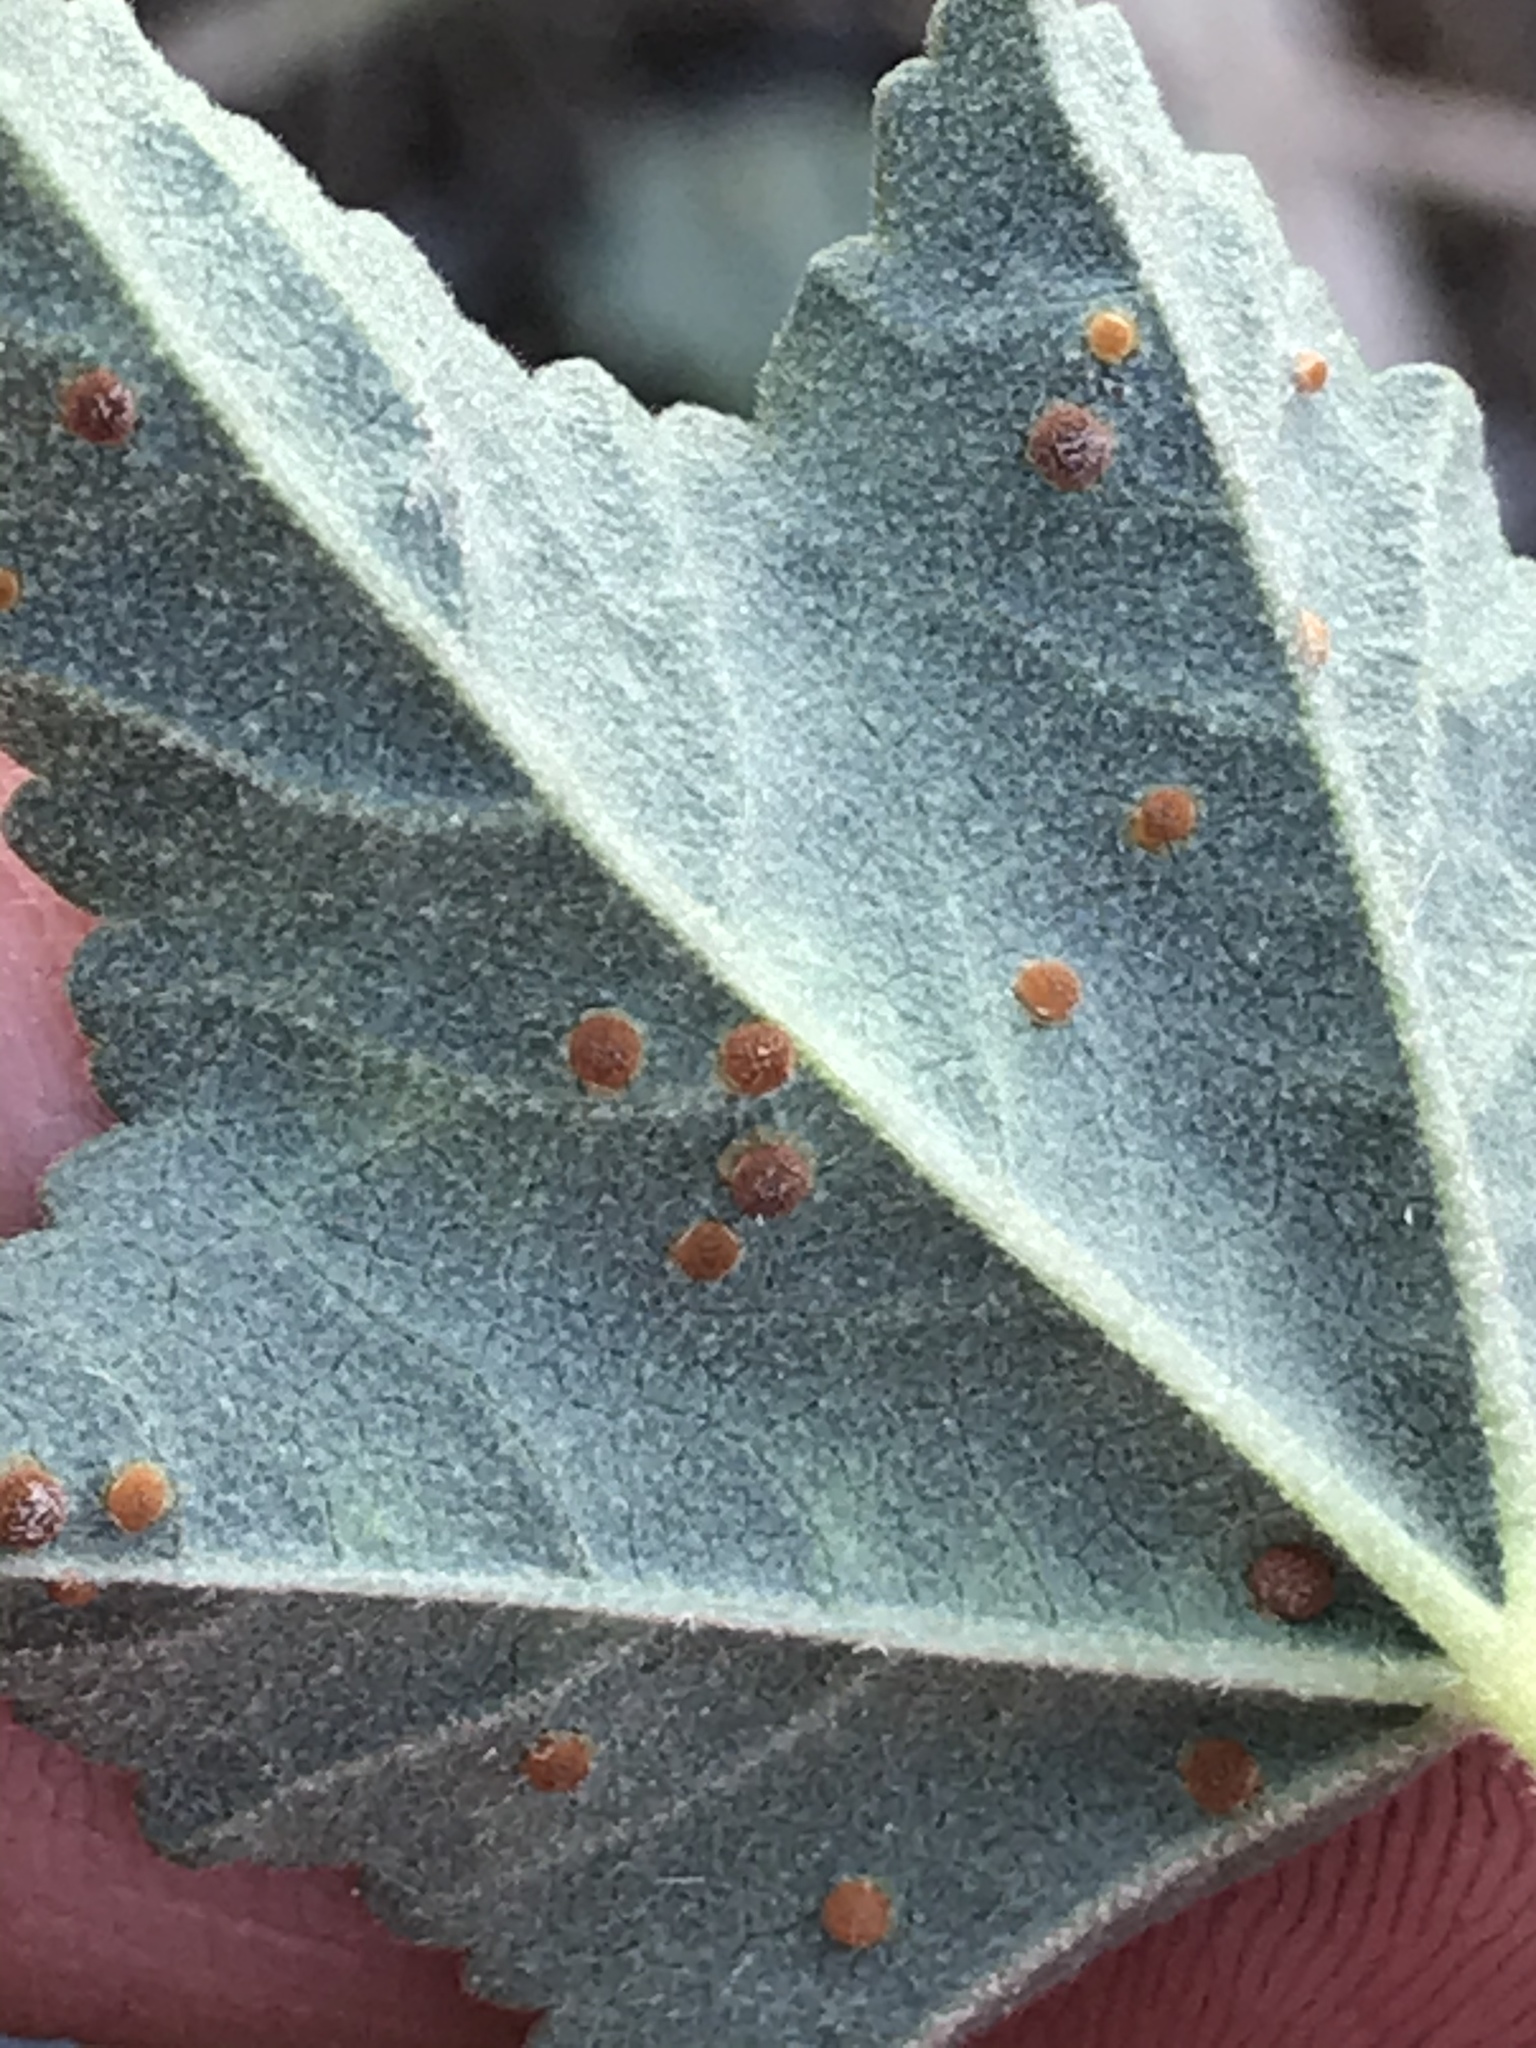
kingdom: Fungi
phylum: Basidiomycota
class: Pucciniomycetes
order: Pucciniales
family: Pucciniaceae
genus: Puccinia
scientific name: Puccinia malvacearum
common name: Hollyhock rust
